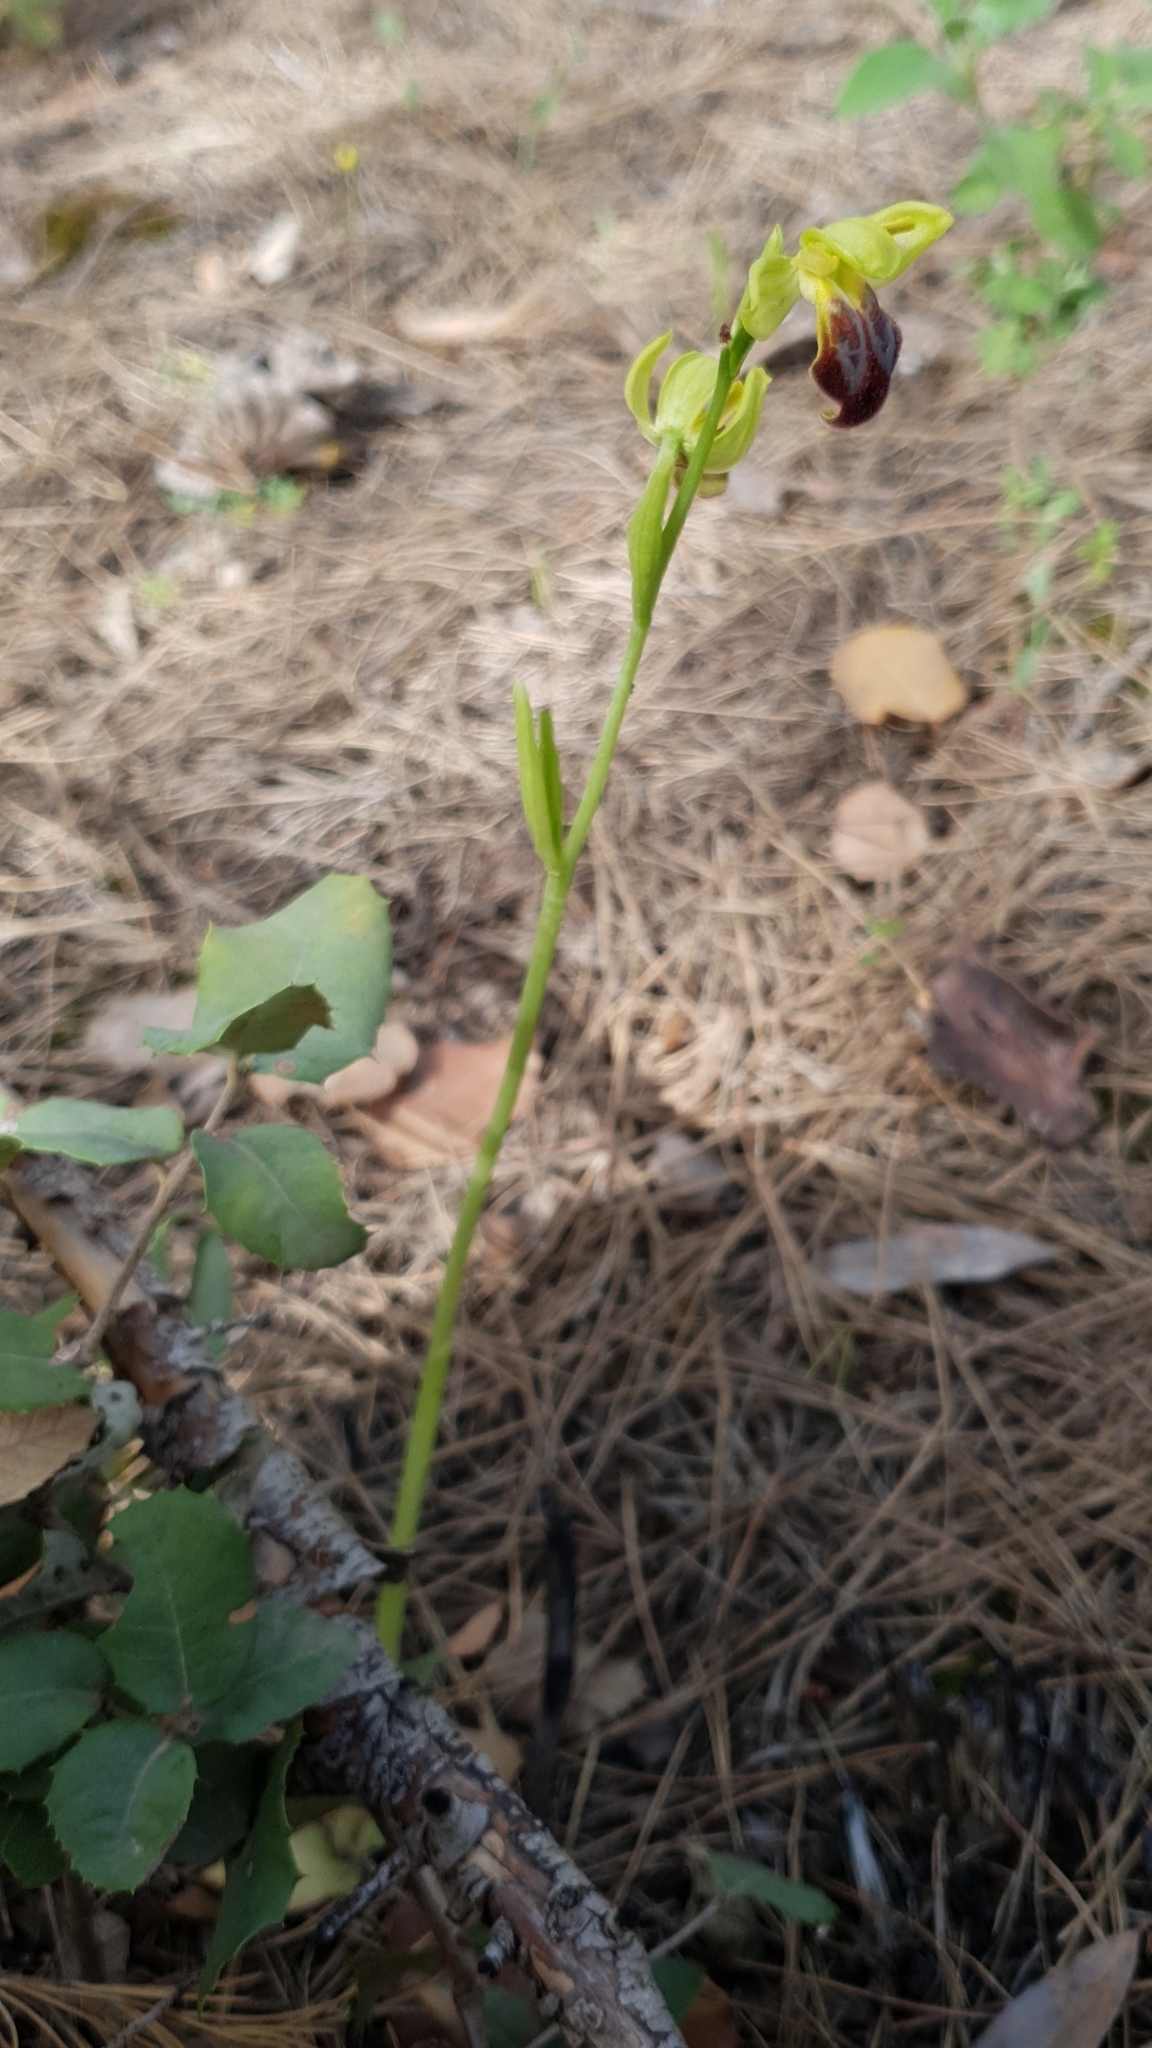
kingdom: Plantae
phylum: Tracheophyta
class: Liliopsida
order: Asparagales
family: Orchidaceae
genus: Ophrys
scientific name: Ophrys fusca
